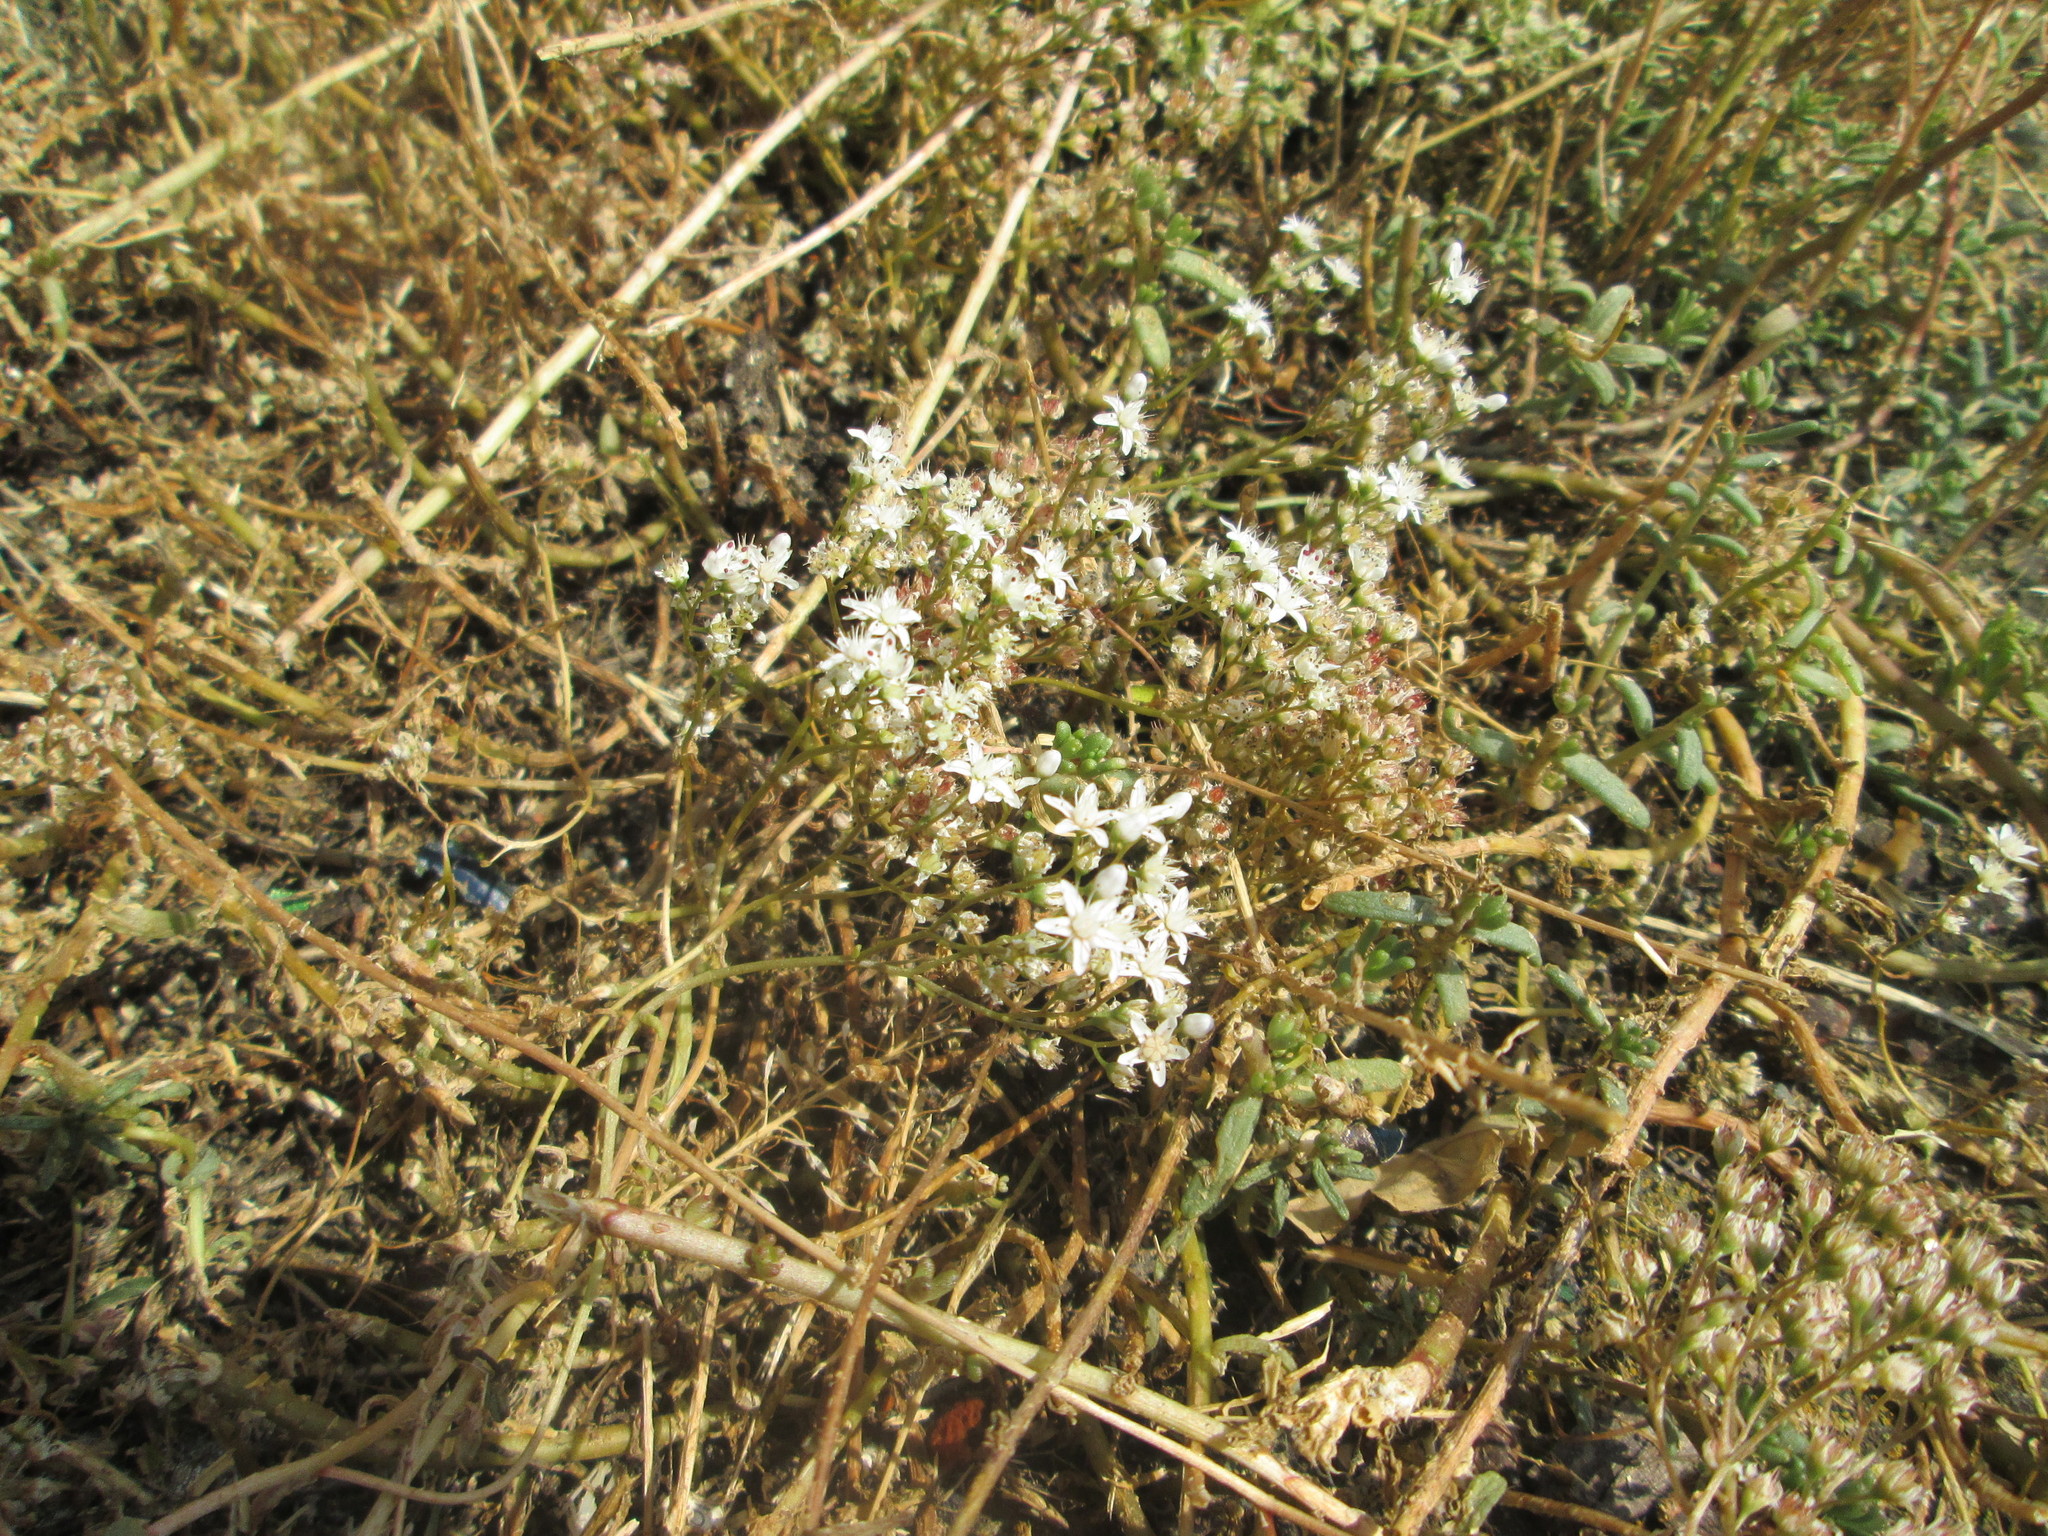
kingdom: Plantae
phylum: Tracheophyta
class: Magnoliopsida
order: Saxifragales
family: Crassulaceae
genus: Sedum
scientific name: Sedum album
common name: White stonecrop
